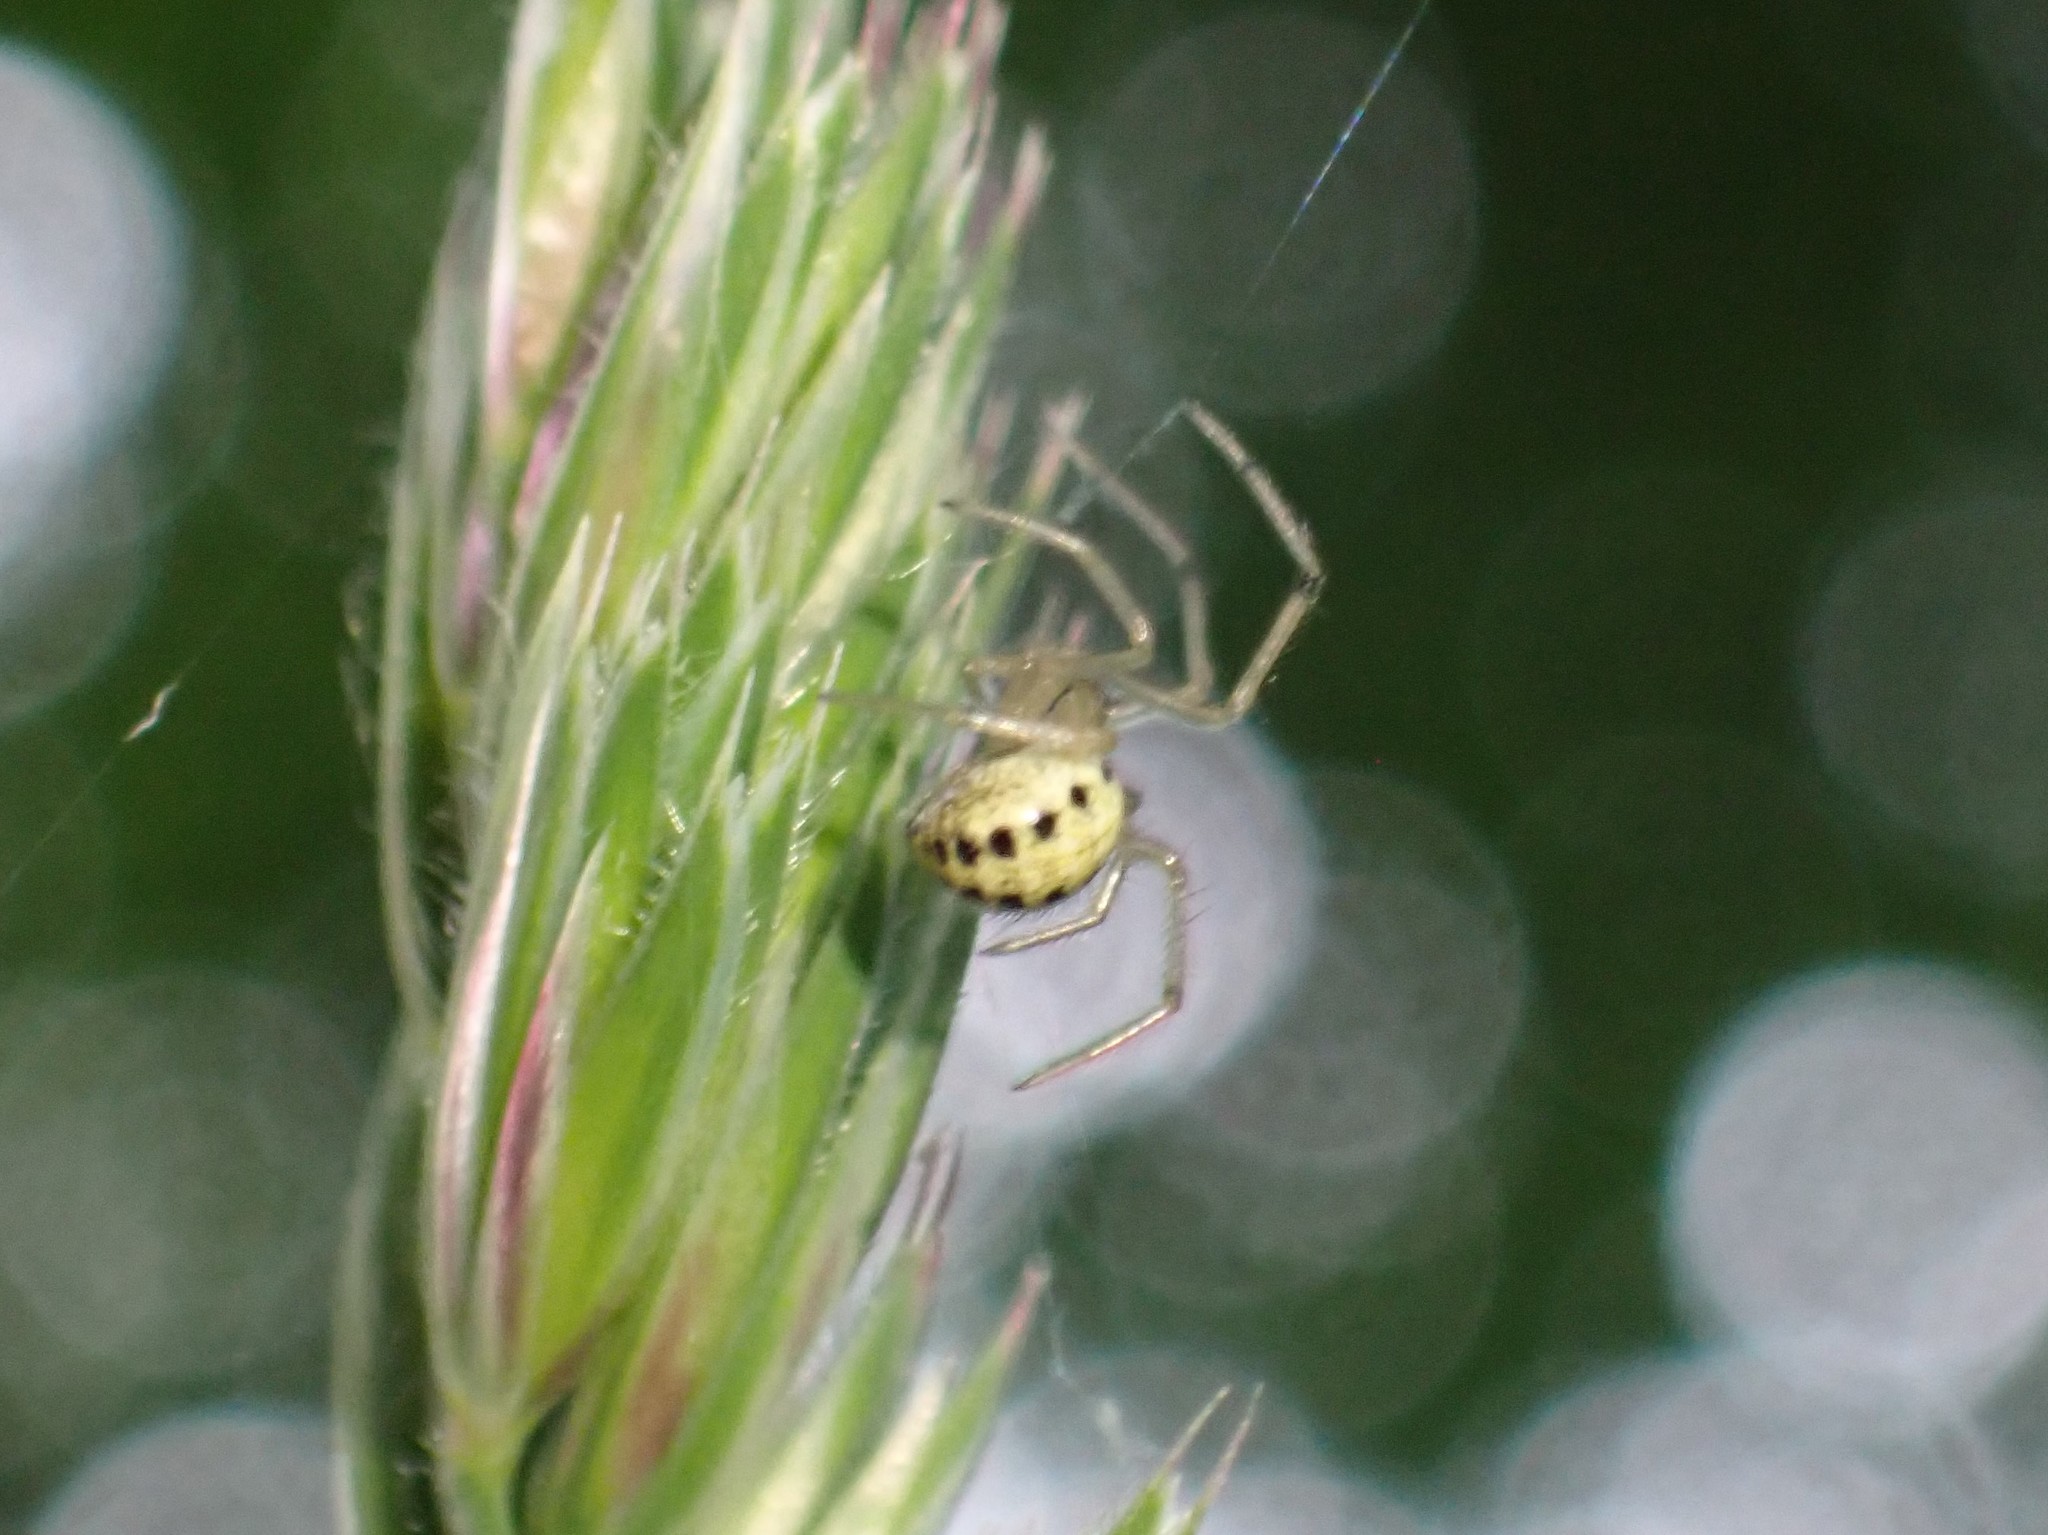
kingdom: Animalia
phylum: Arthropoda
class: Arachnida
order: Araneae
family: Theridiidae
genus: Enoplognatha
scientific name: Enoplognatha ovata
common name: Common candy-striped spider
